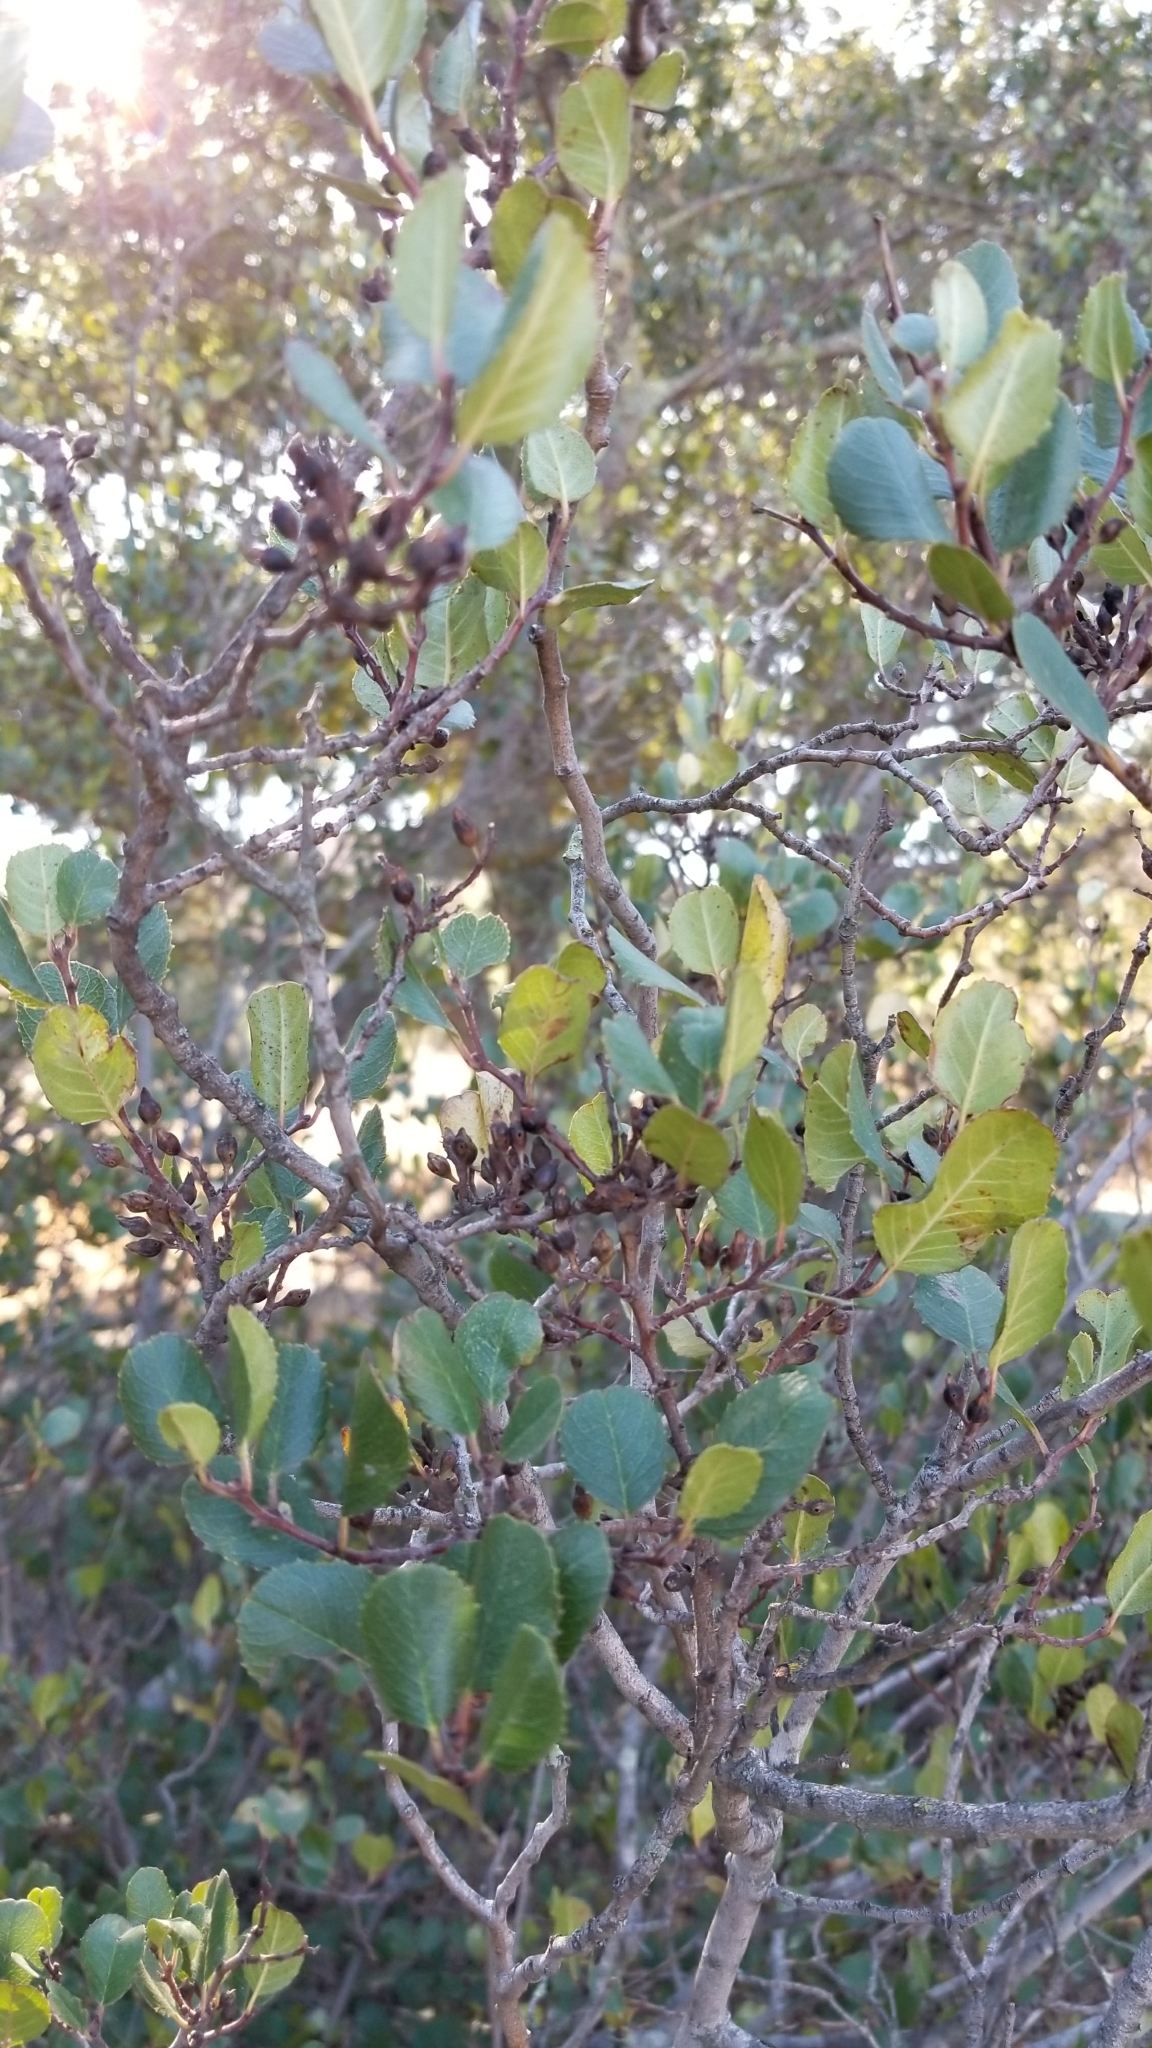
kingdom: Plantae
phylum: Tracheophyta
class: Magnoliopsida
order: Rosales
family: Rhamnaceae
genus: Endotropis
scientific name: Endotropis crocea
